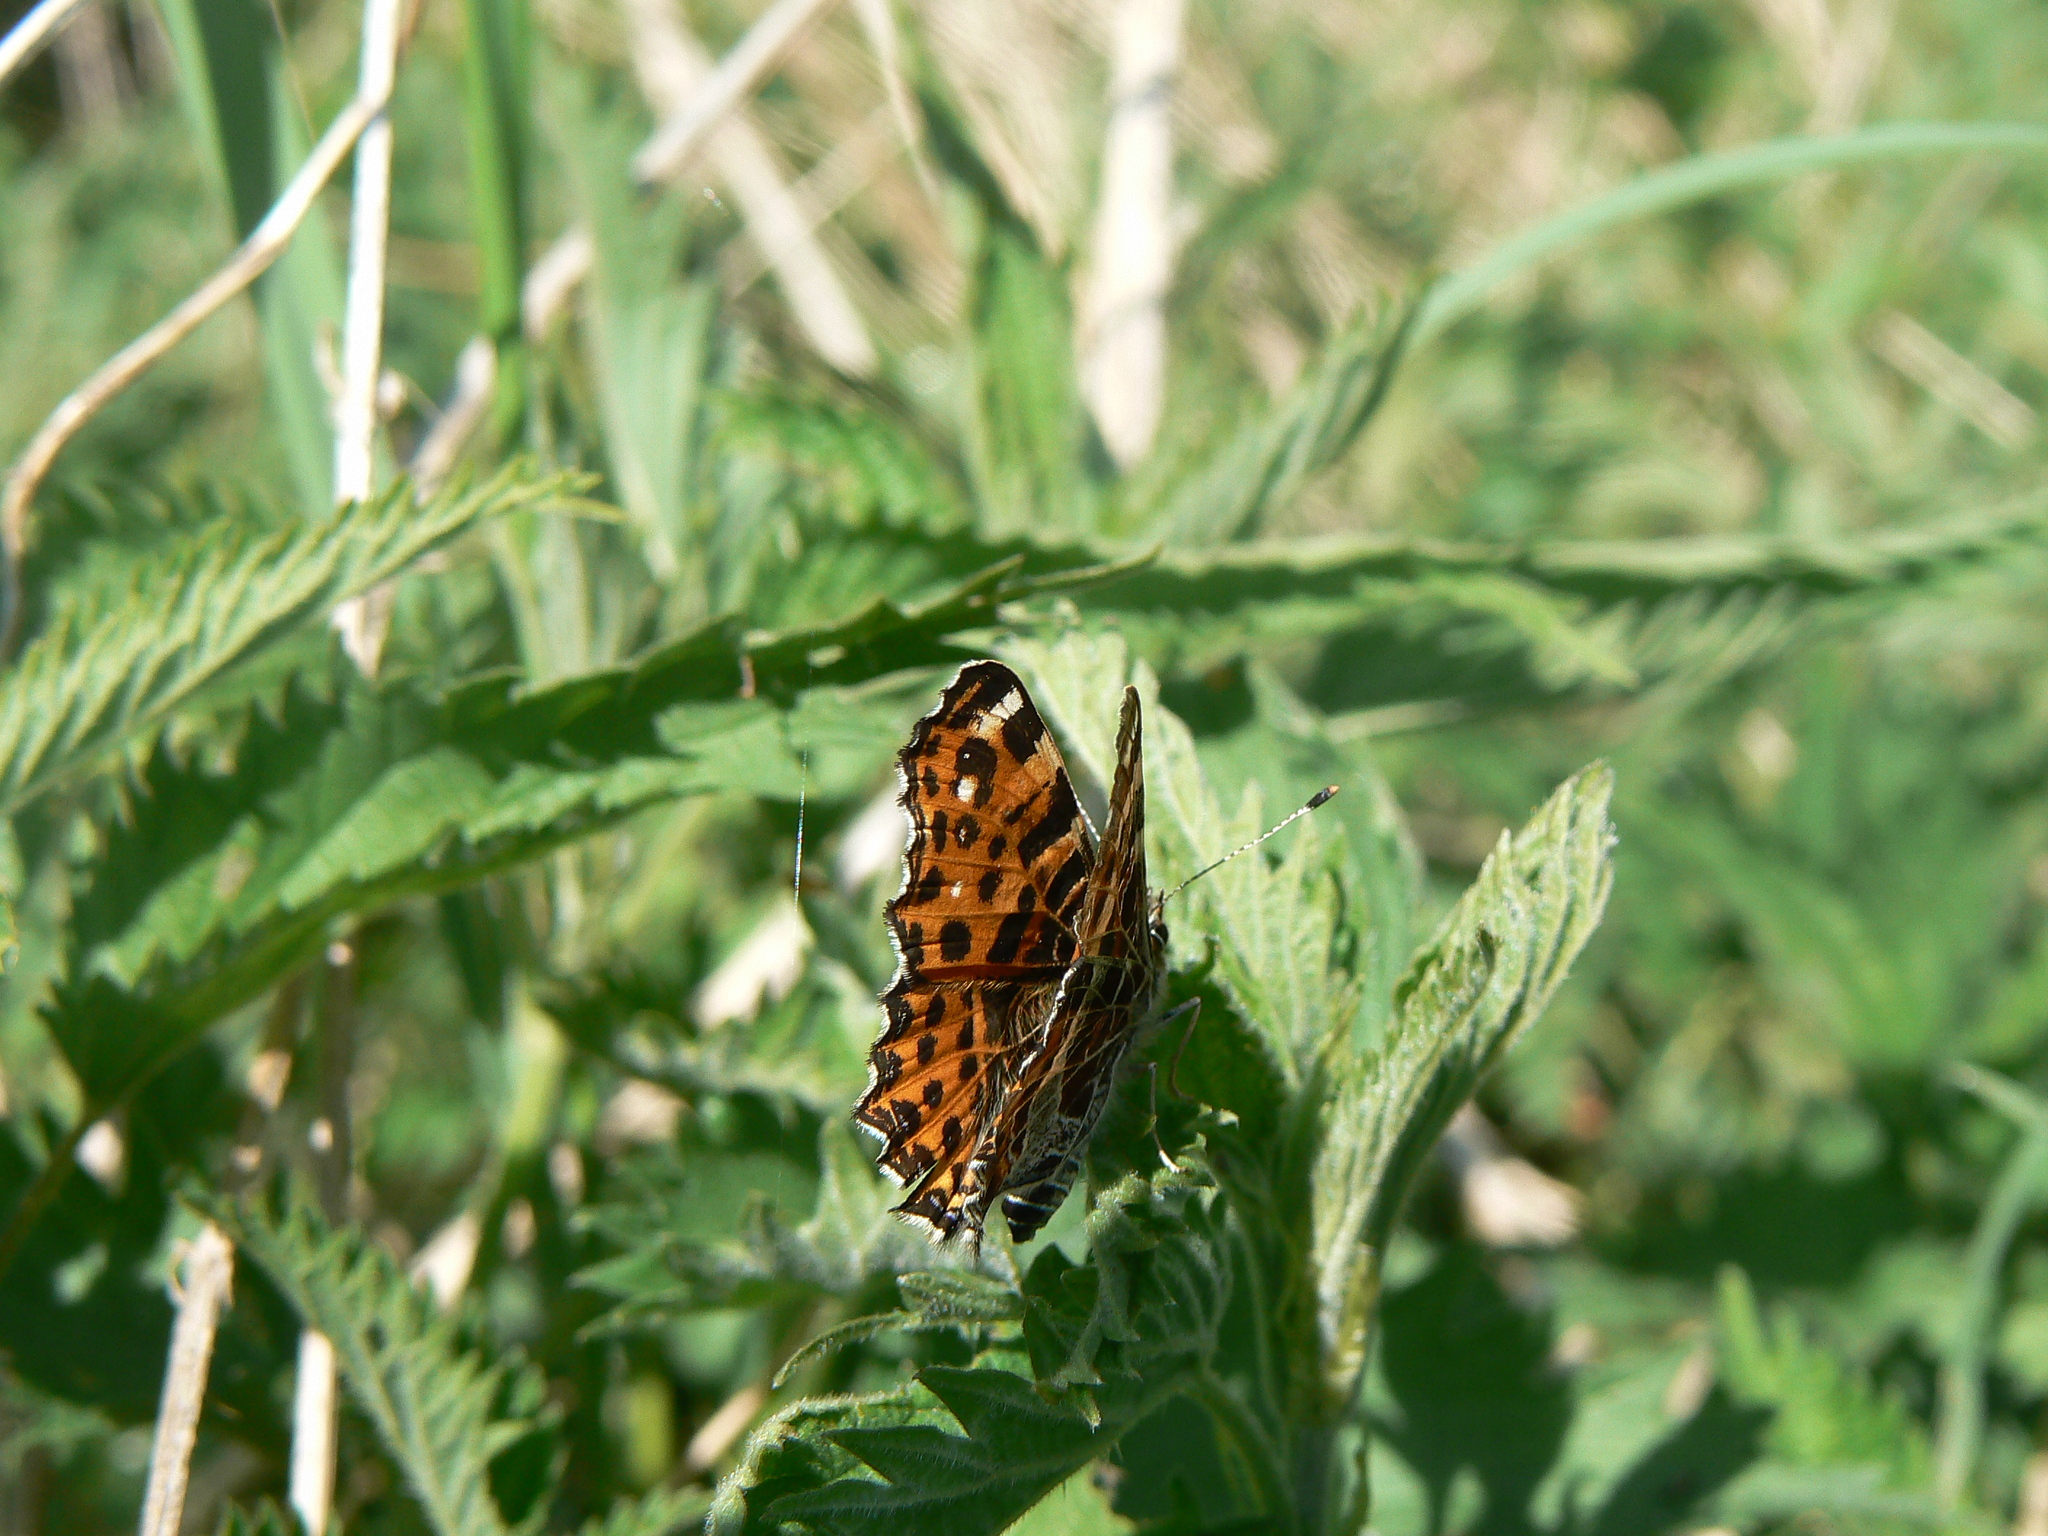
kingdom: Animalia
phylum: Arthropoda
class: Insecta
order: Lepidoptera
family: Nymphalidae
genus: Araschnia
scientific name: Araschnia levana
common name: Map butterfly
